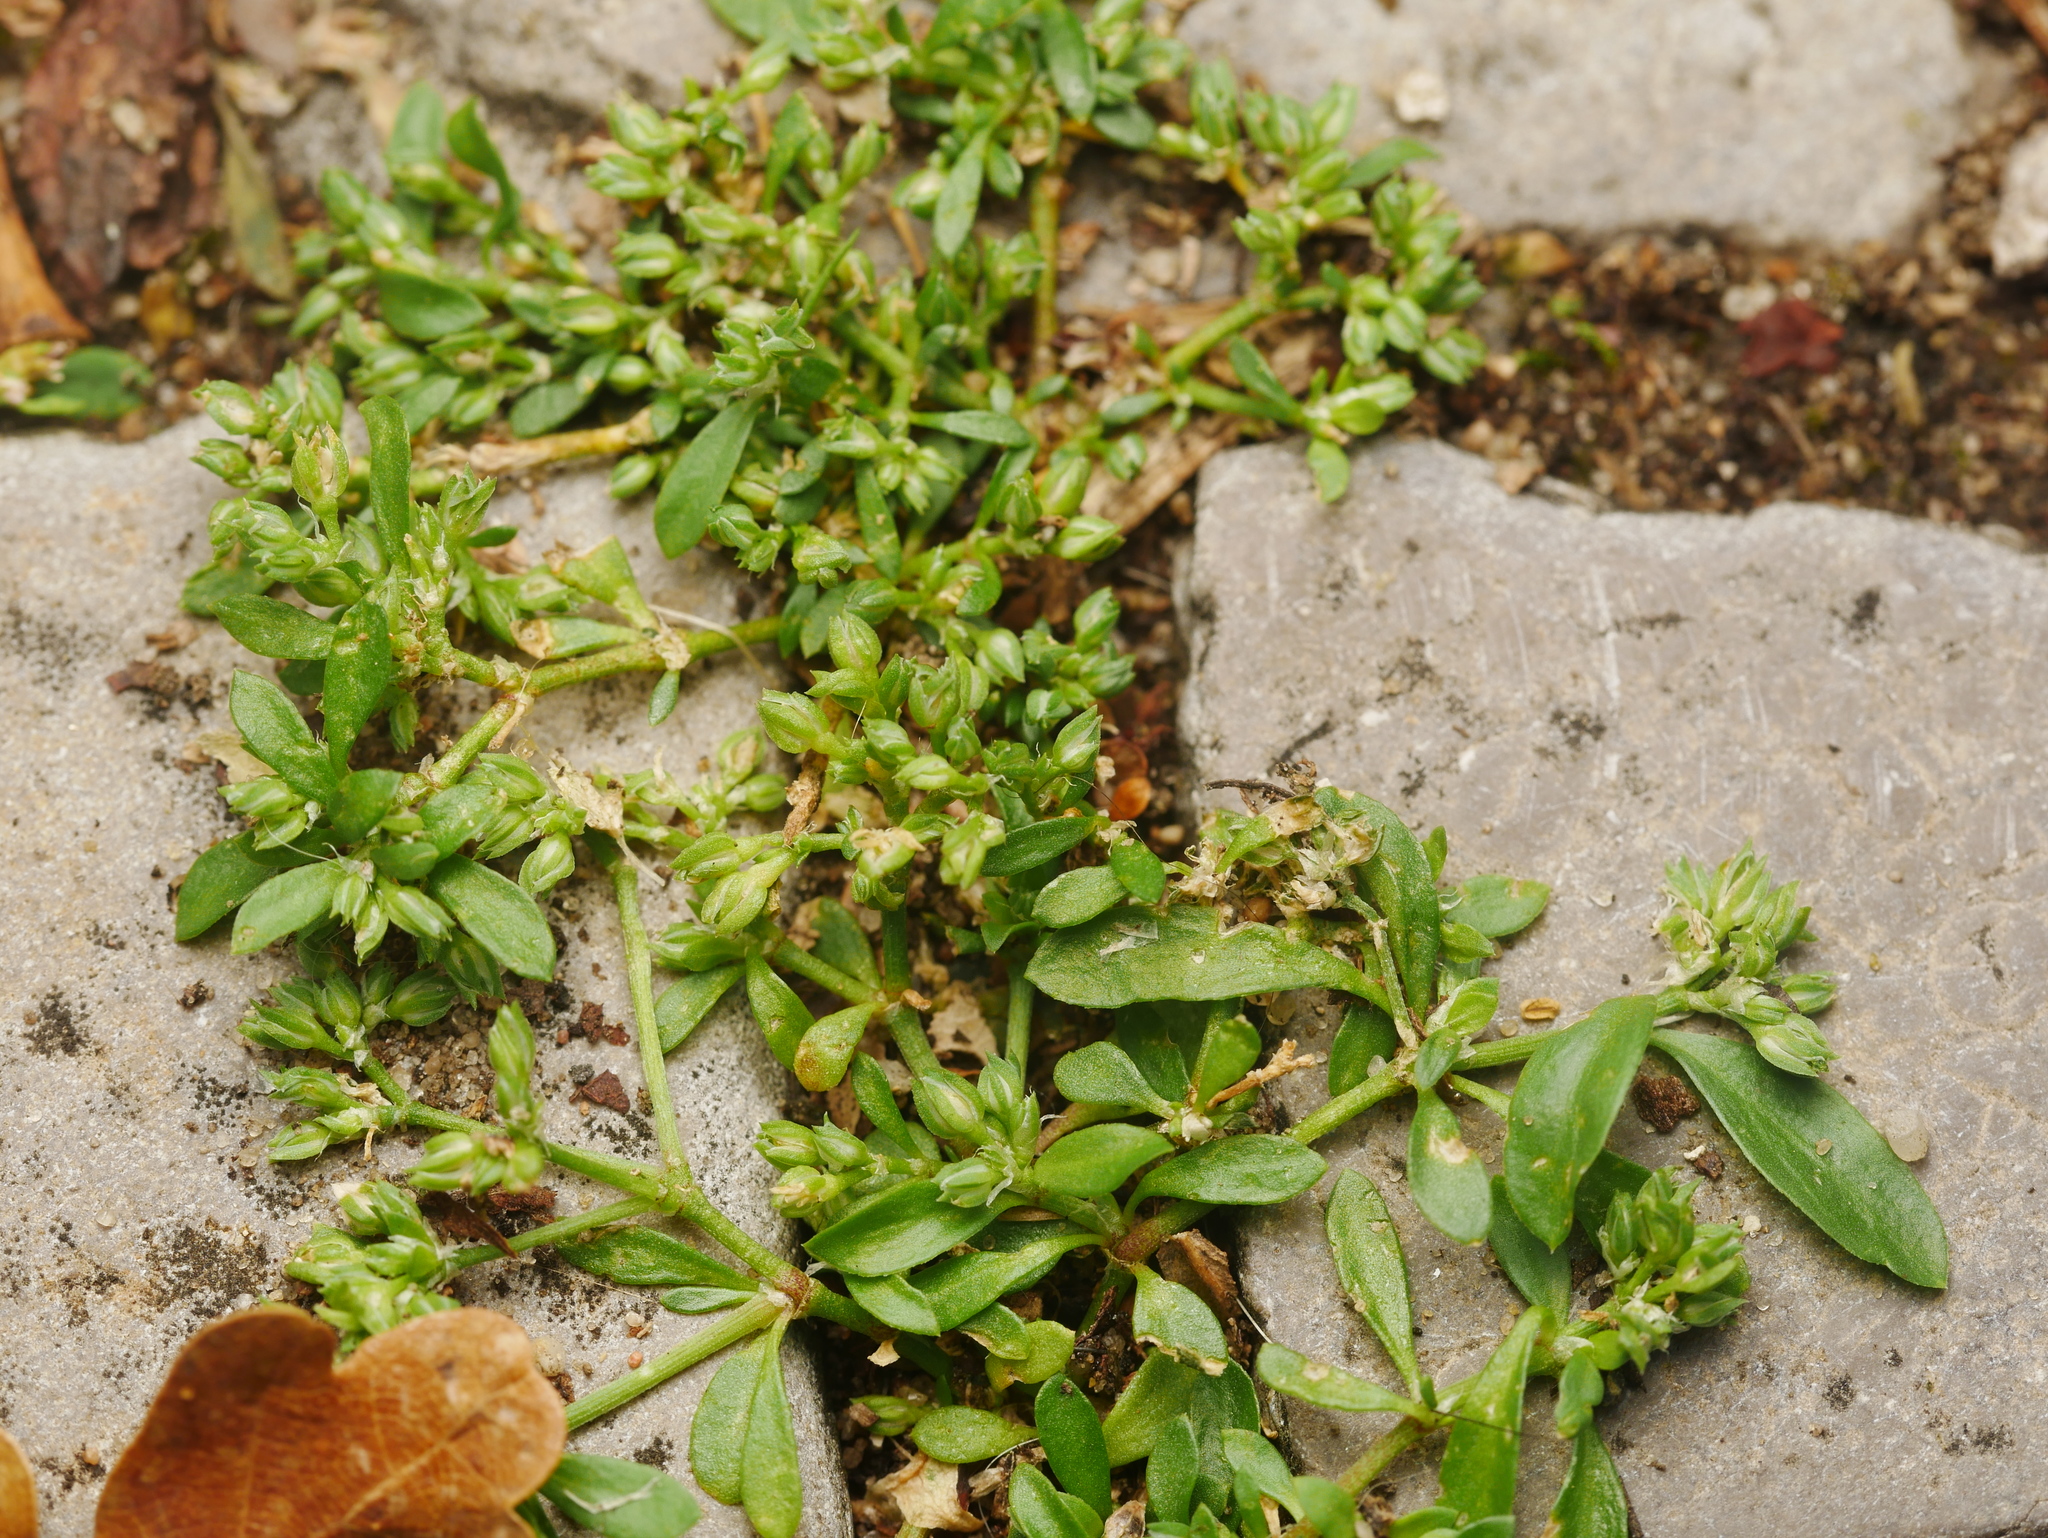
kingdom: Plantae
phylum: Tracheophyta
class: Magnoliopsida
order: Caryophyllales
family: Caryophyllaceae
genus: Polycarpon
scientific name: Polycarpon tetraphyllum
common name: Four-leaved all-seed
